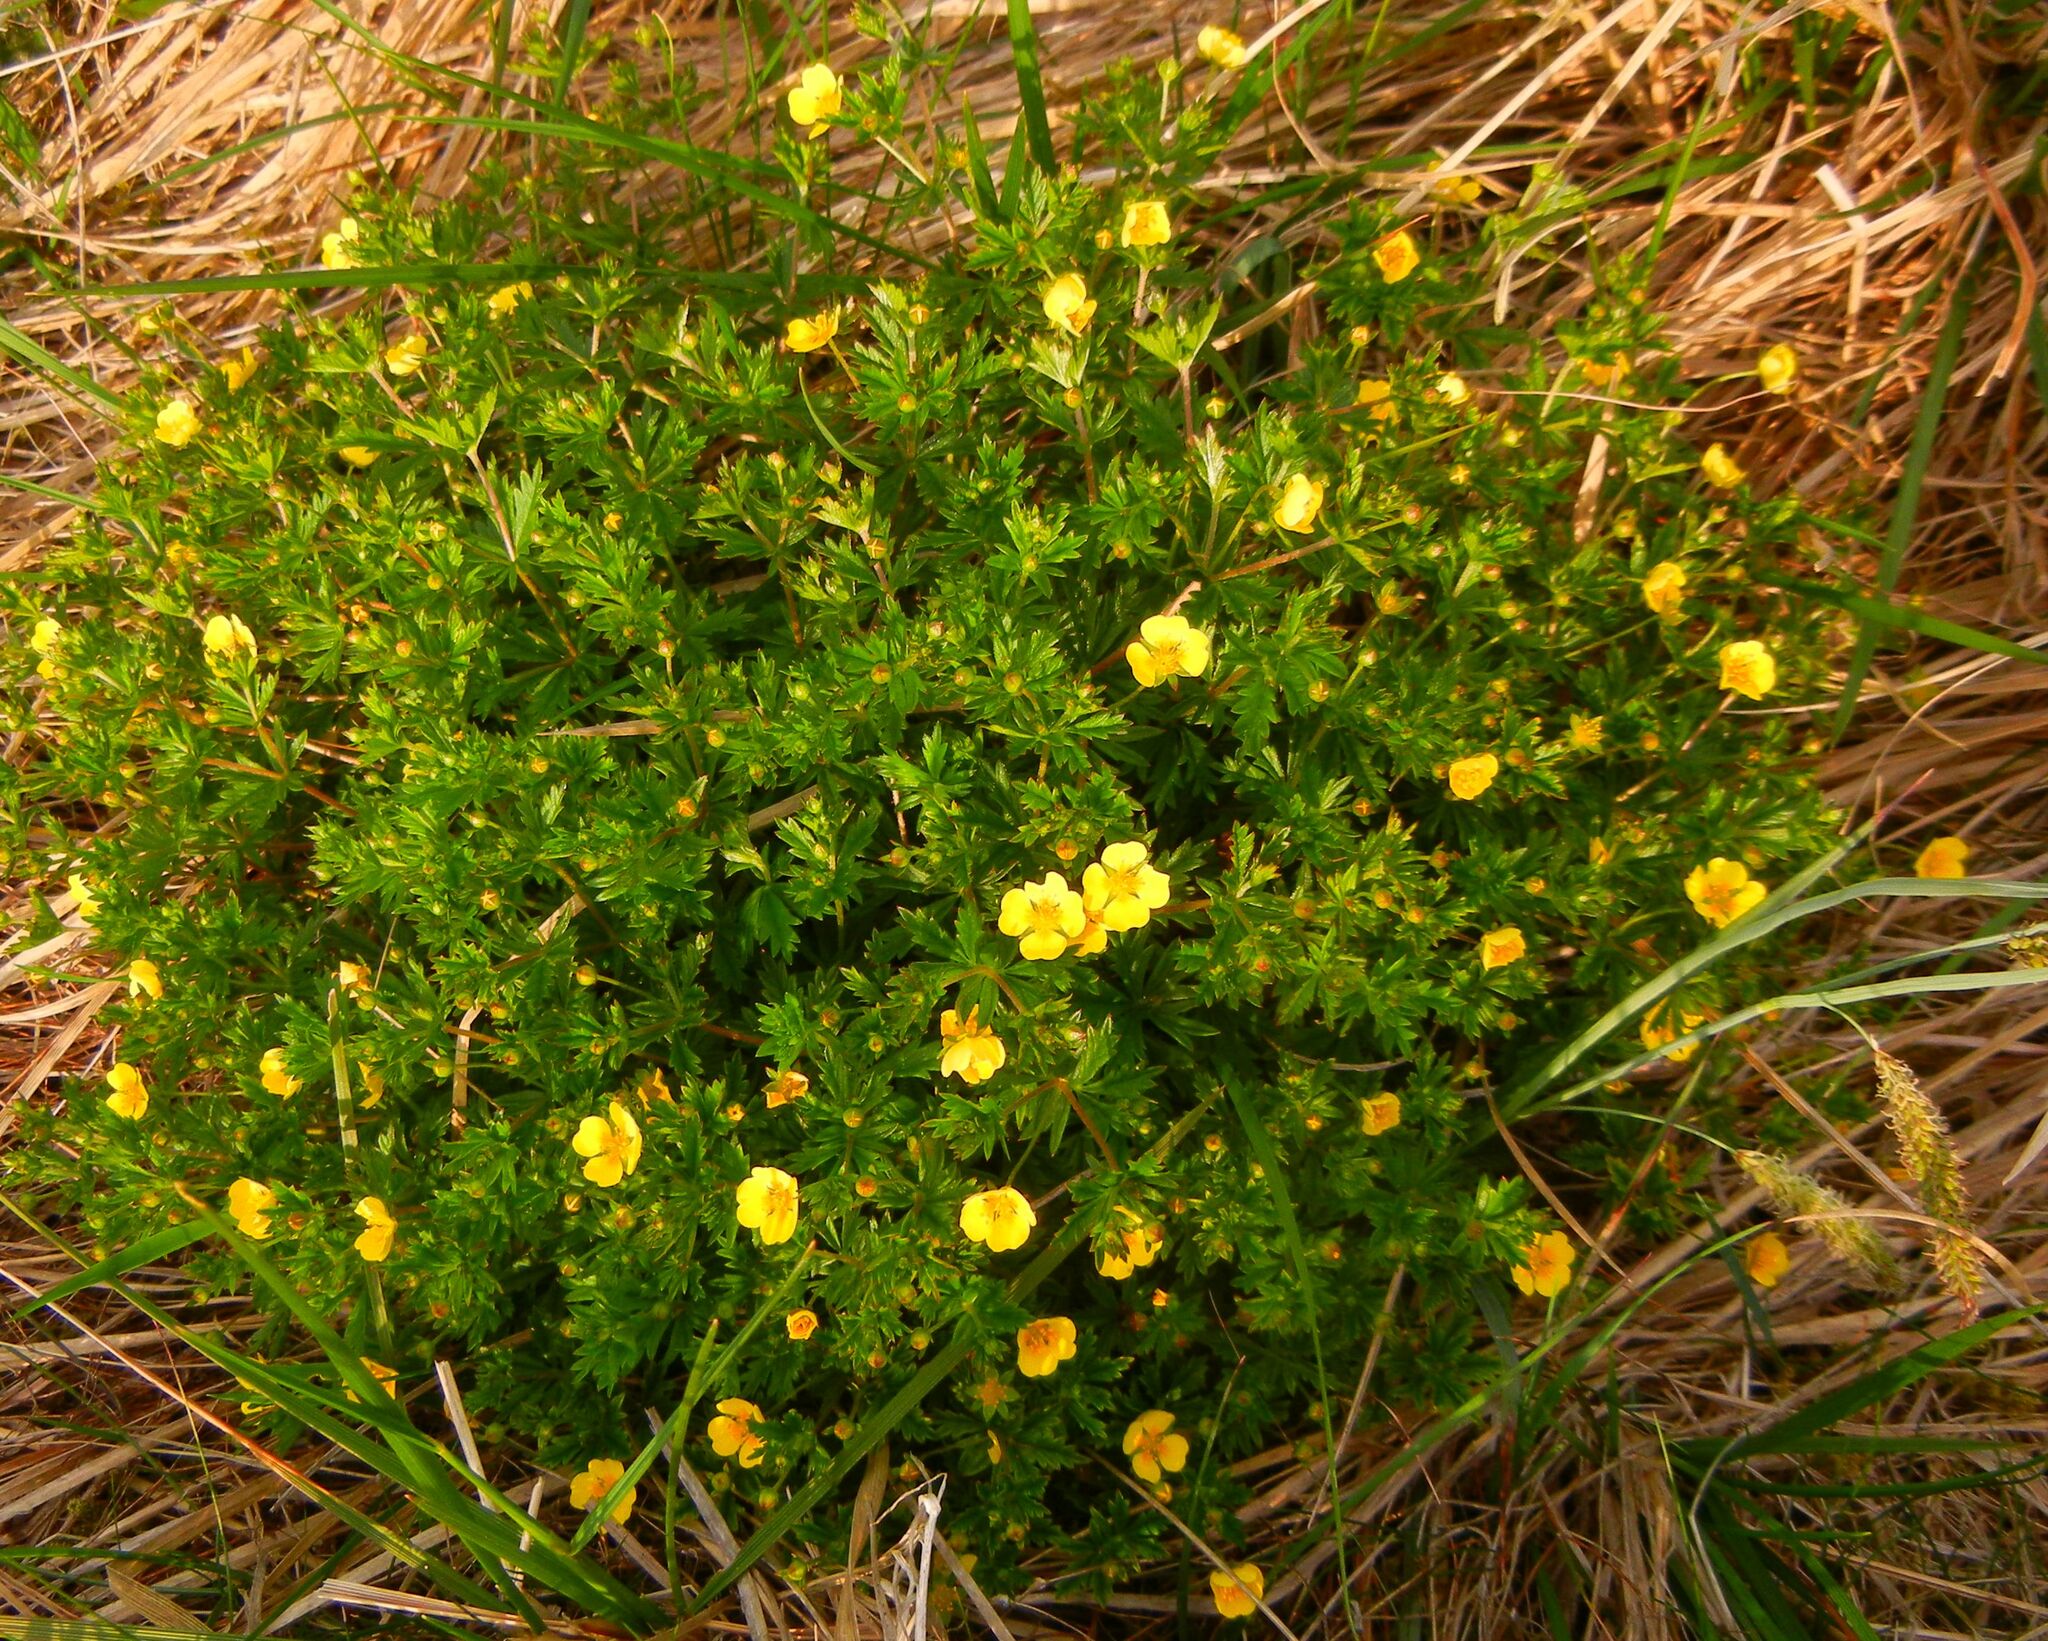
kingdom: Plantae
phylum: Tracheophyta
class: Magnoliopsida
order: Rosales
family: Rosaceae
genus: Potentilla
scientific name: Potentilla erecta
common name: Tormentil
